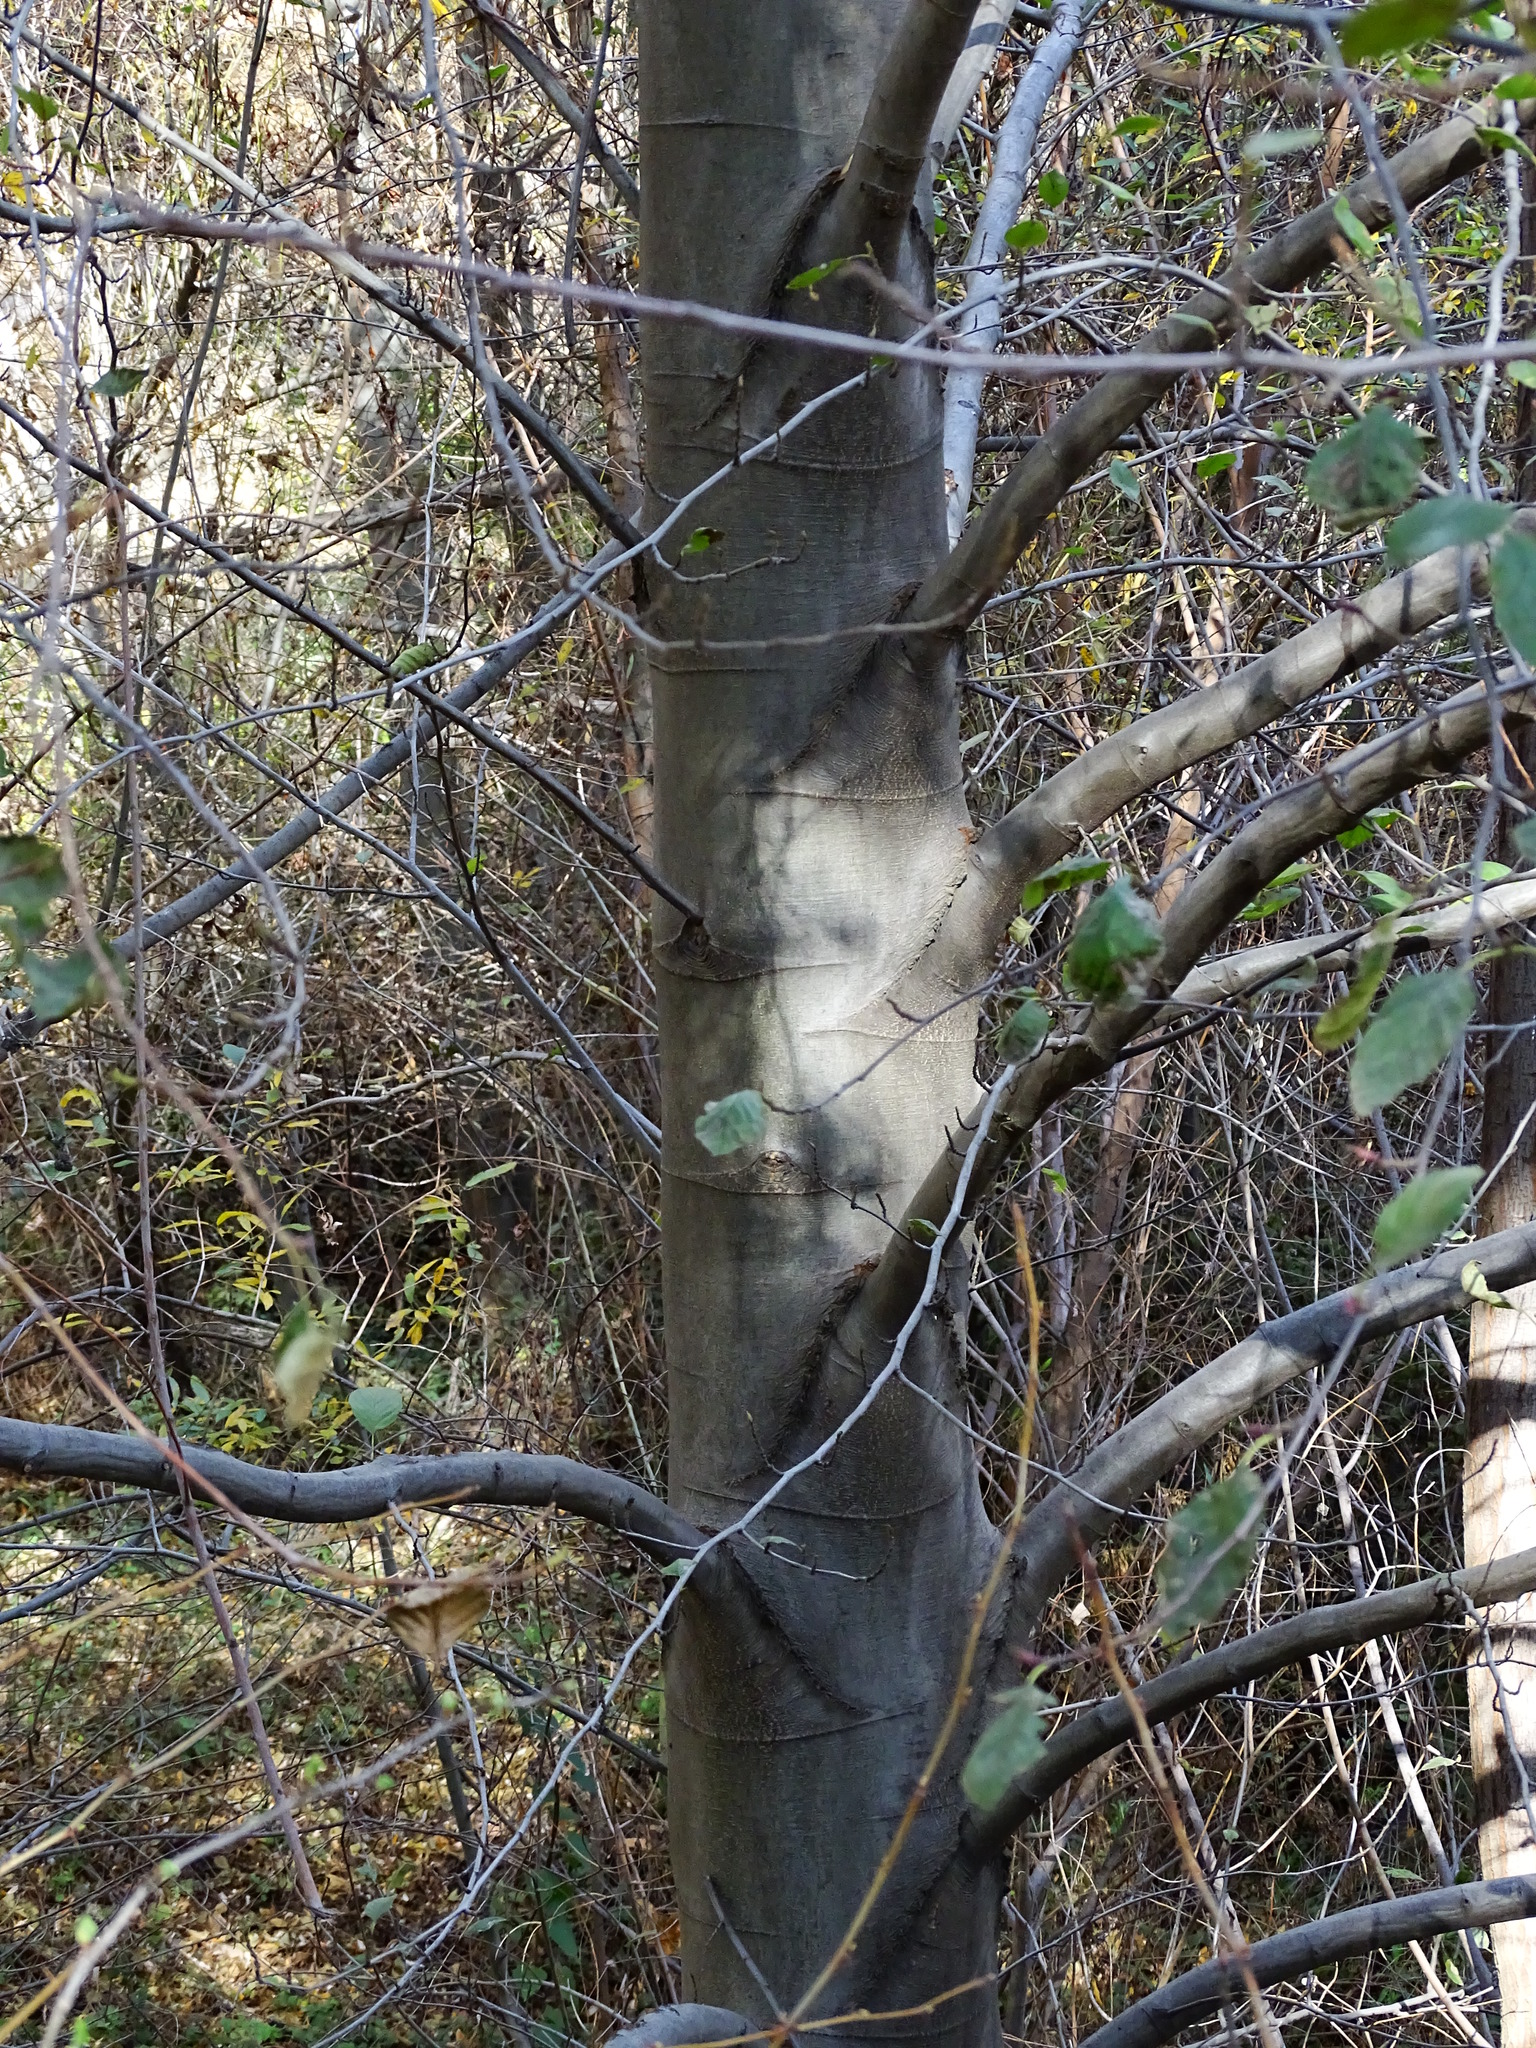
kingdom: Plantae
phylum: Tracheophyta
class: Magnoliopsida
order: Fagales
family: Betulaceae
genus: Alnus
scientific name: Alnus rhombifolia
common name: California alder
